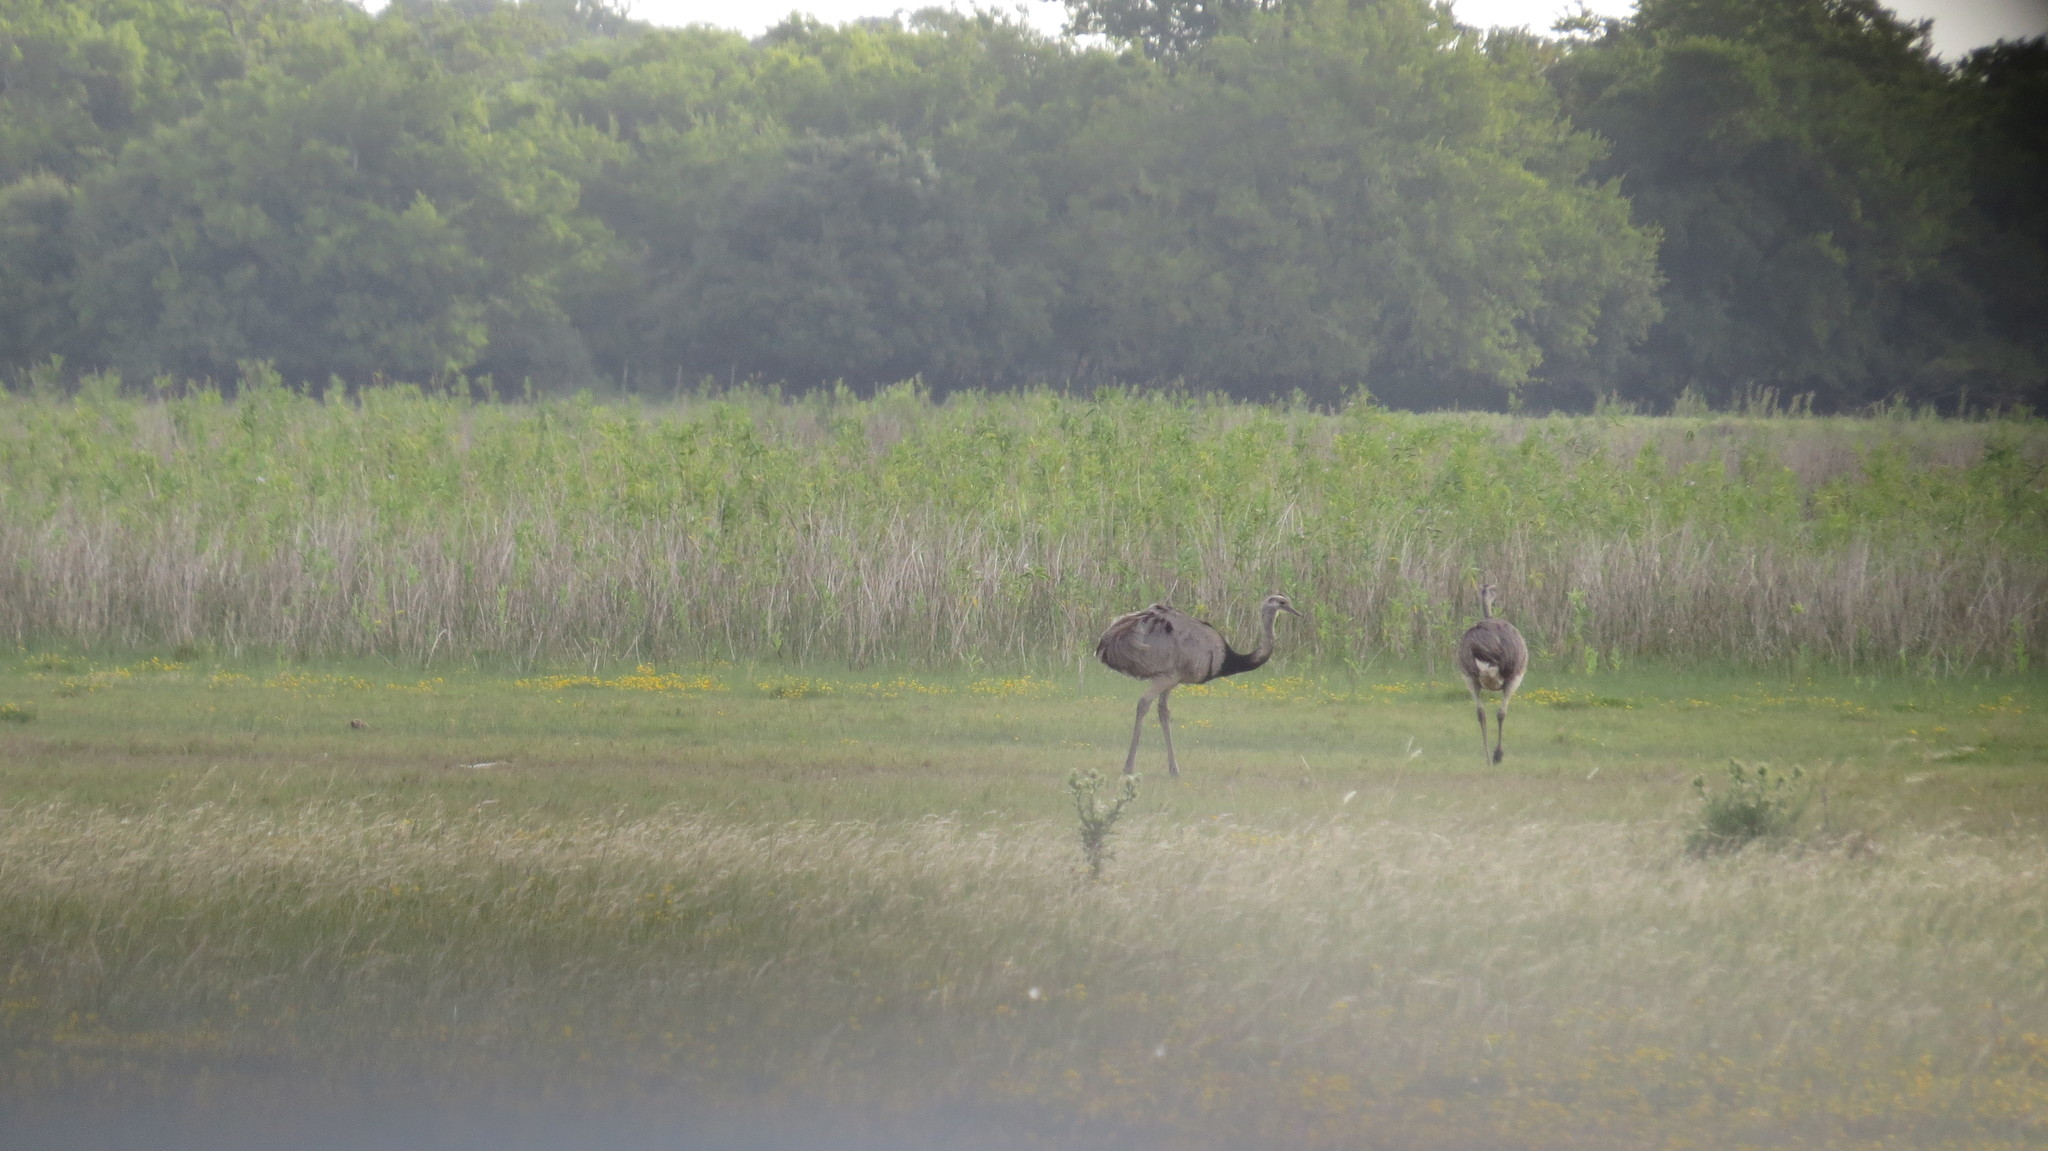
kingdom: Animalia
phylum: Chordata
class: Aves
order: Rheiformes
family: Rheidae
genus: Rhea
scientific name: Rhea americana
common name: Greater rhea
